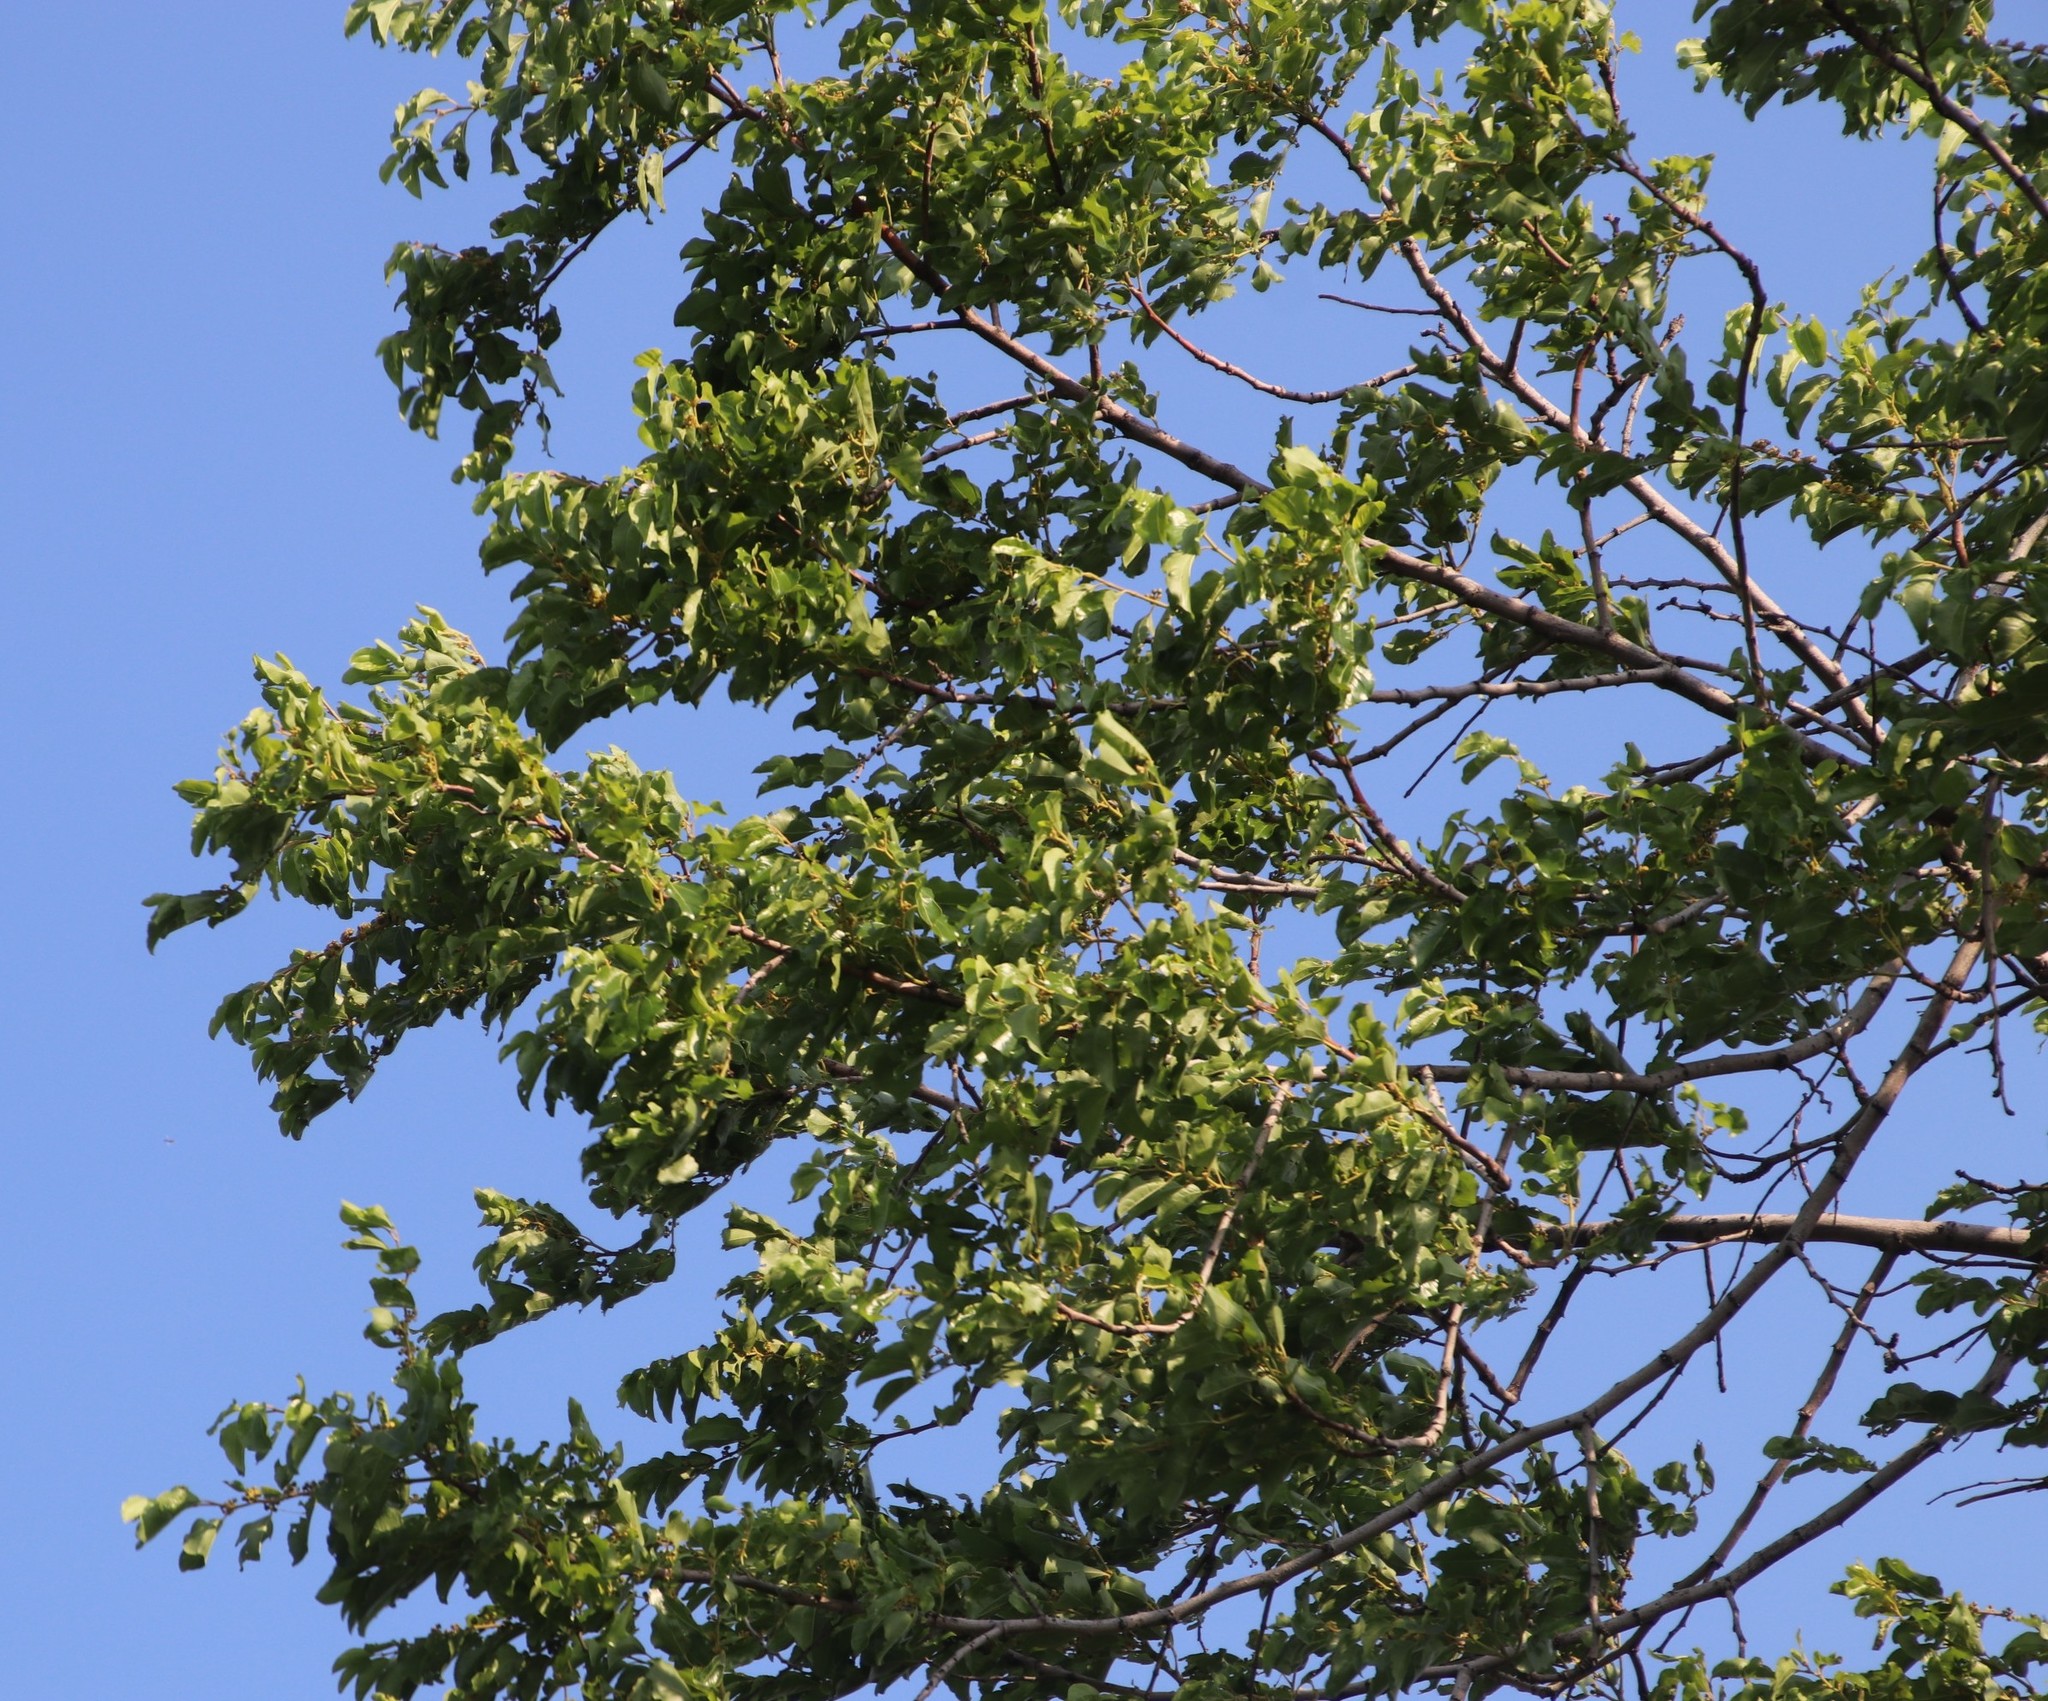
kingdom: Plantae
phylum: Tracheophyta
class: Magnoliopsida
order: Rosales
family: Rhamnaceae
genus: Ziziphus
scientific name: Ziziphus mucronata
